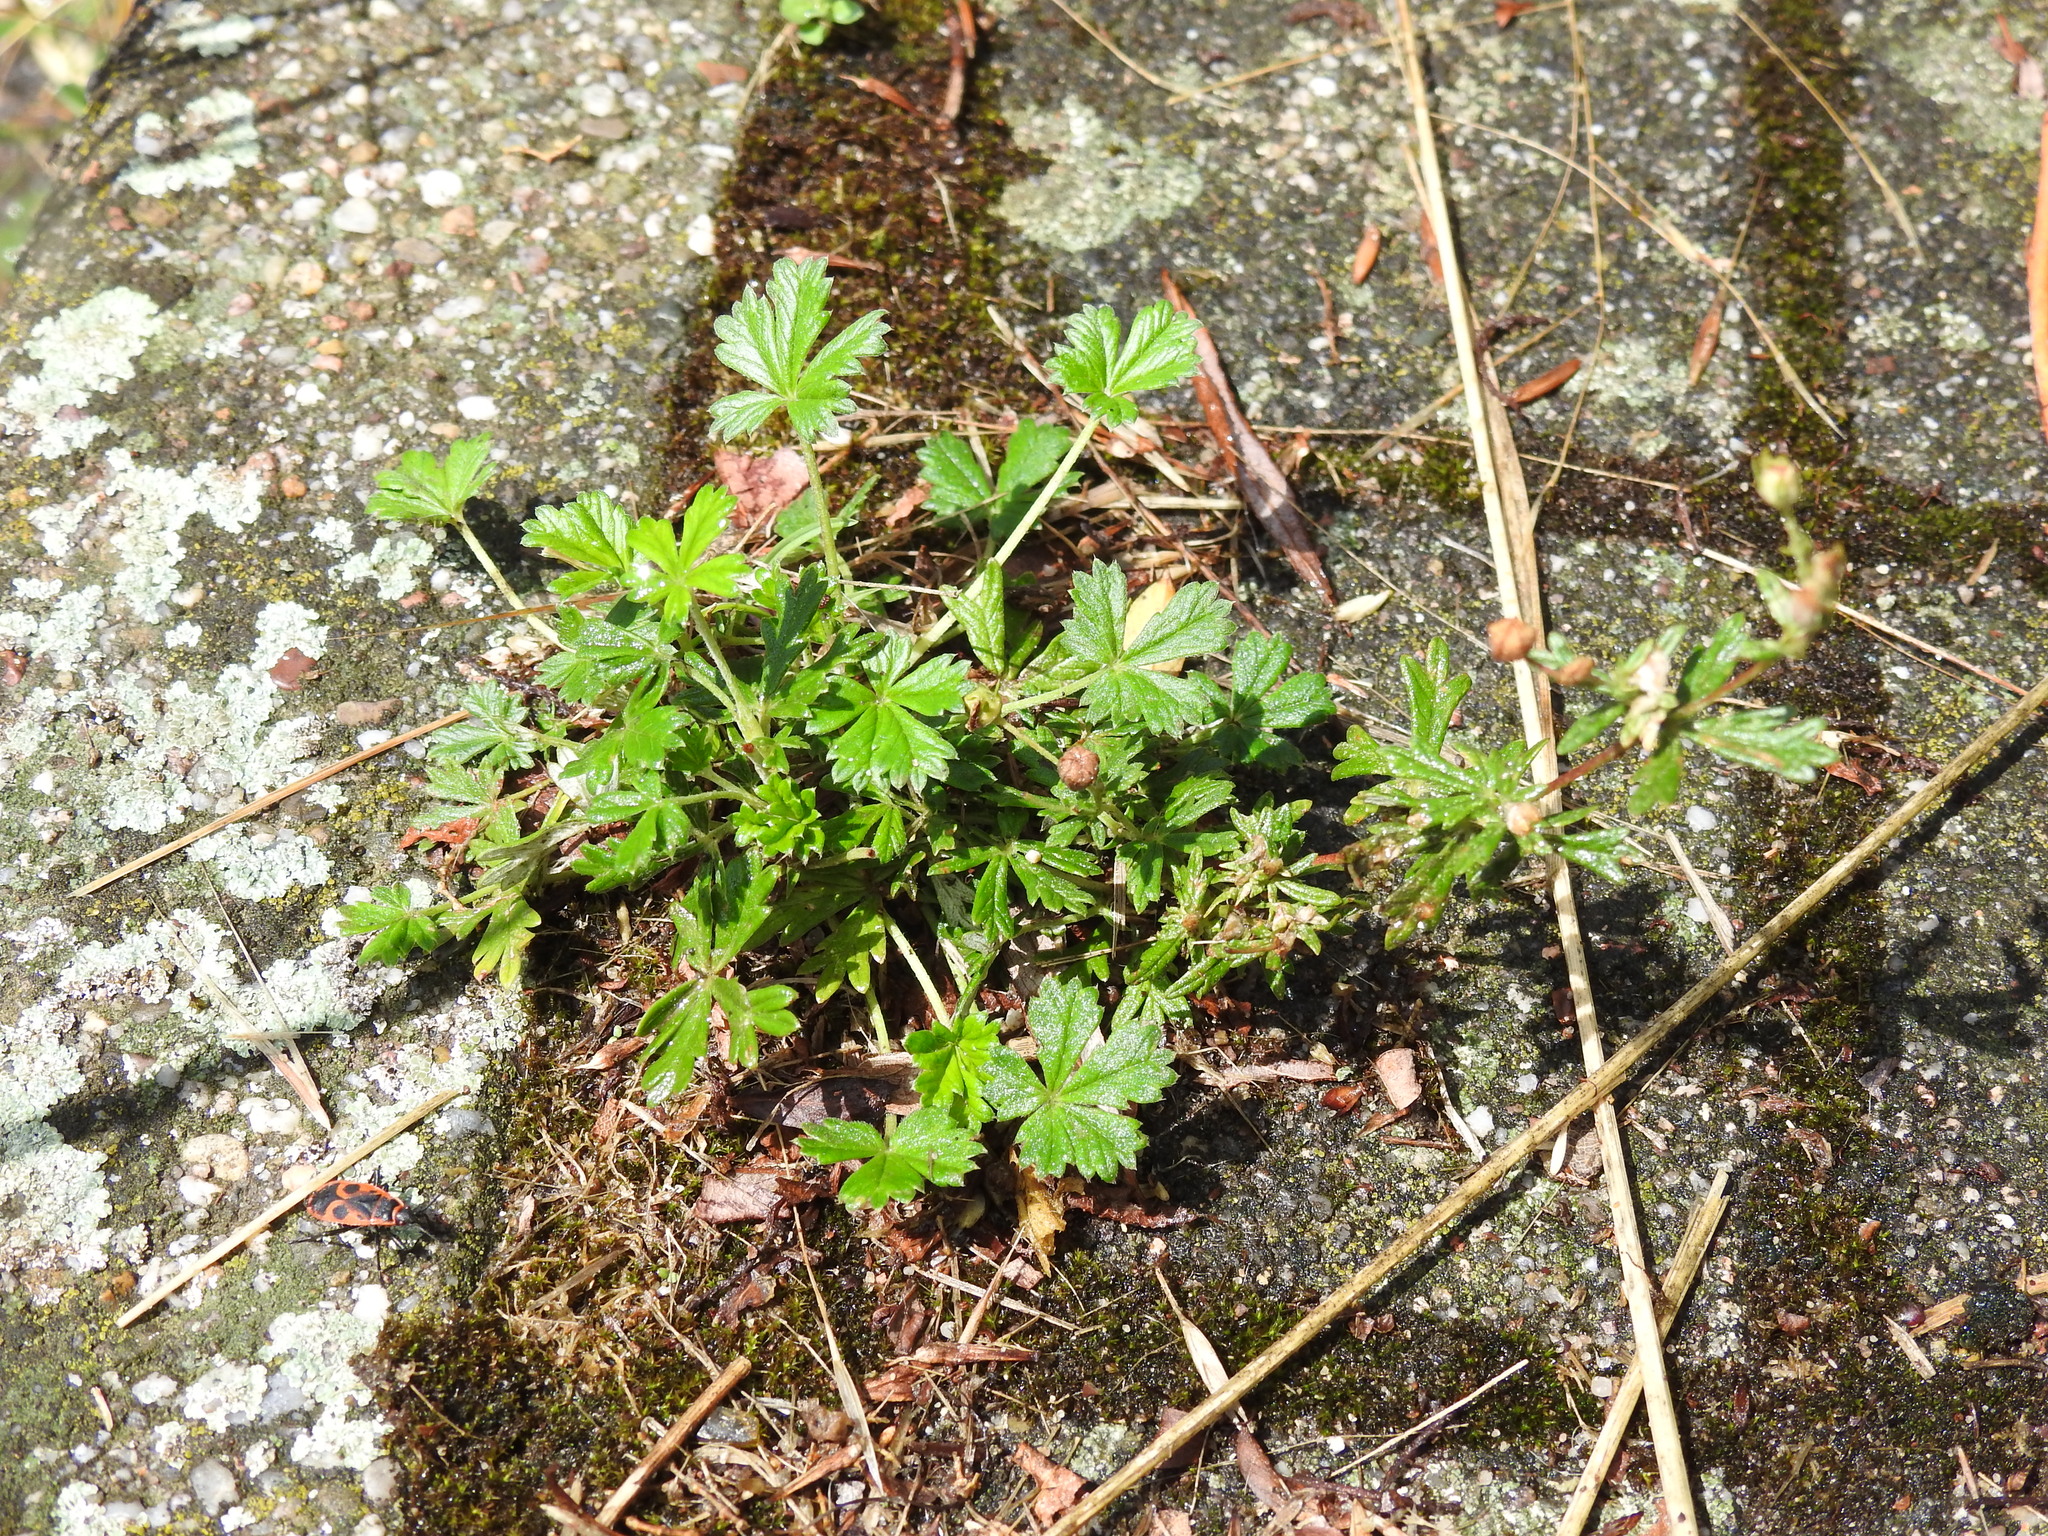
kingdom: Plantae
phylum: Tracheophyta
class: Magnoliopsida
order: Rosales
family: Rosaceae
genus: Potentilla
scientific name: Potentilla argentea
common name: Hoary cinquefoil
